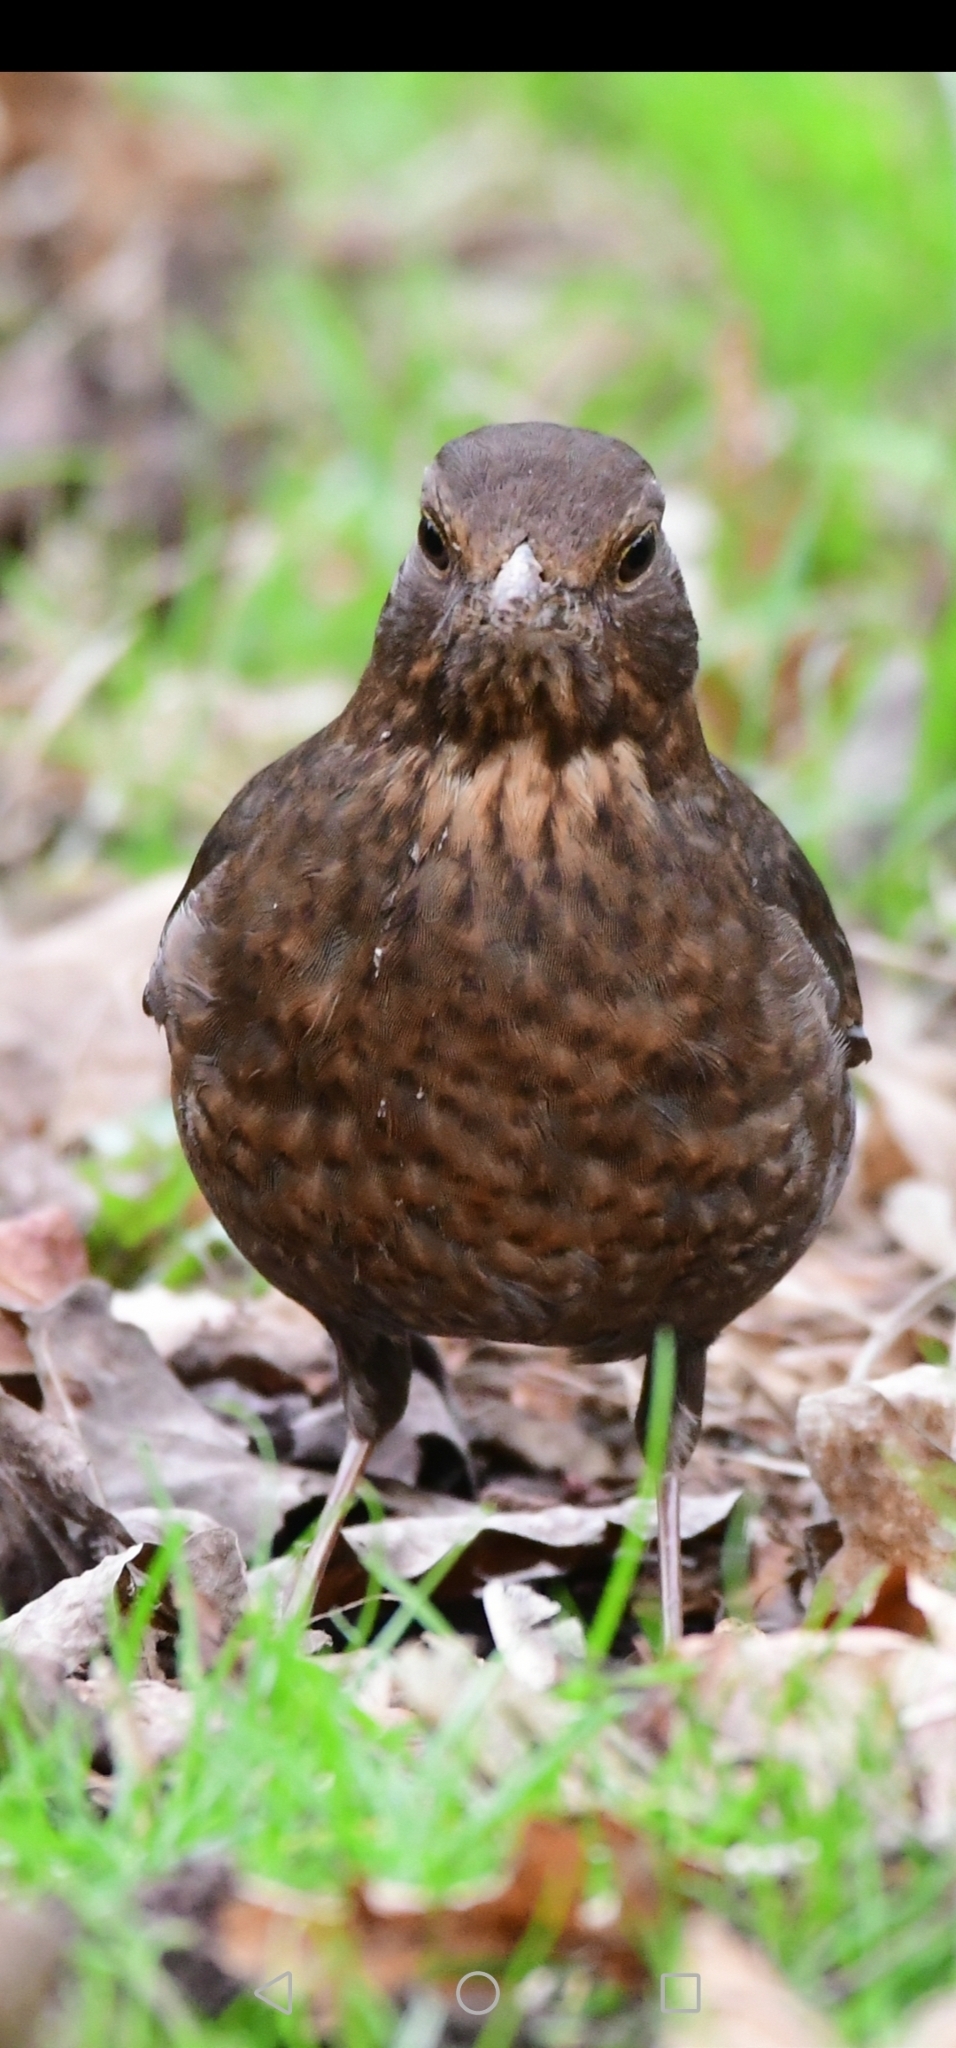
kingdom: Animalia
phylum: Chordata
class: Aves
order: Passeriformes
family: Turdidae
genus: Turdus
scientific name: Turdus merula
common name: Common blackbird
